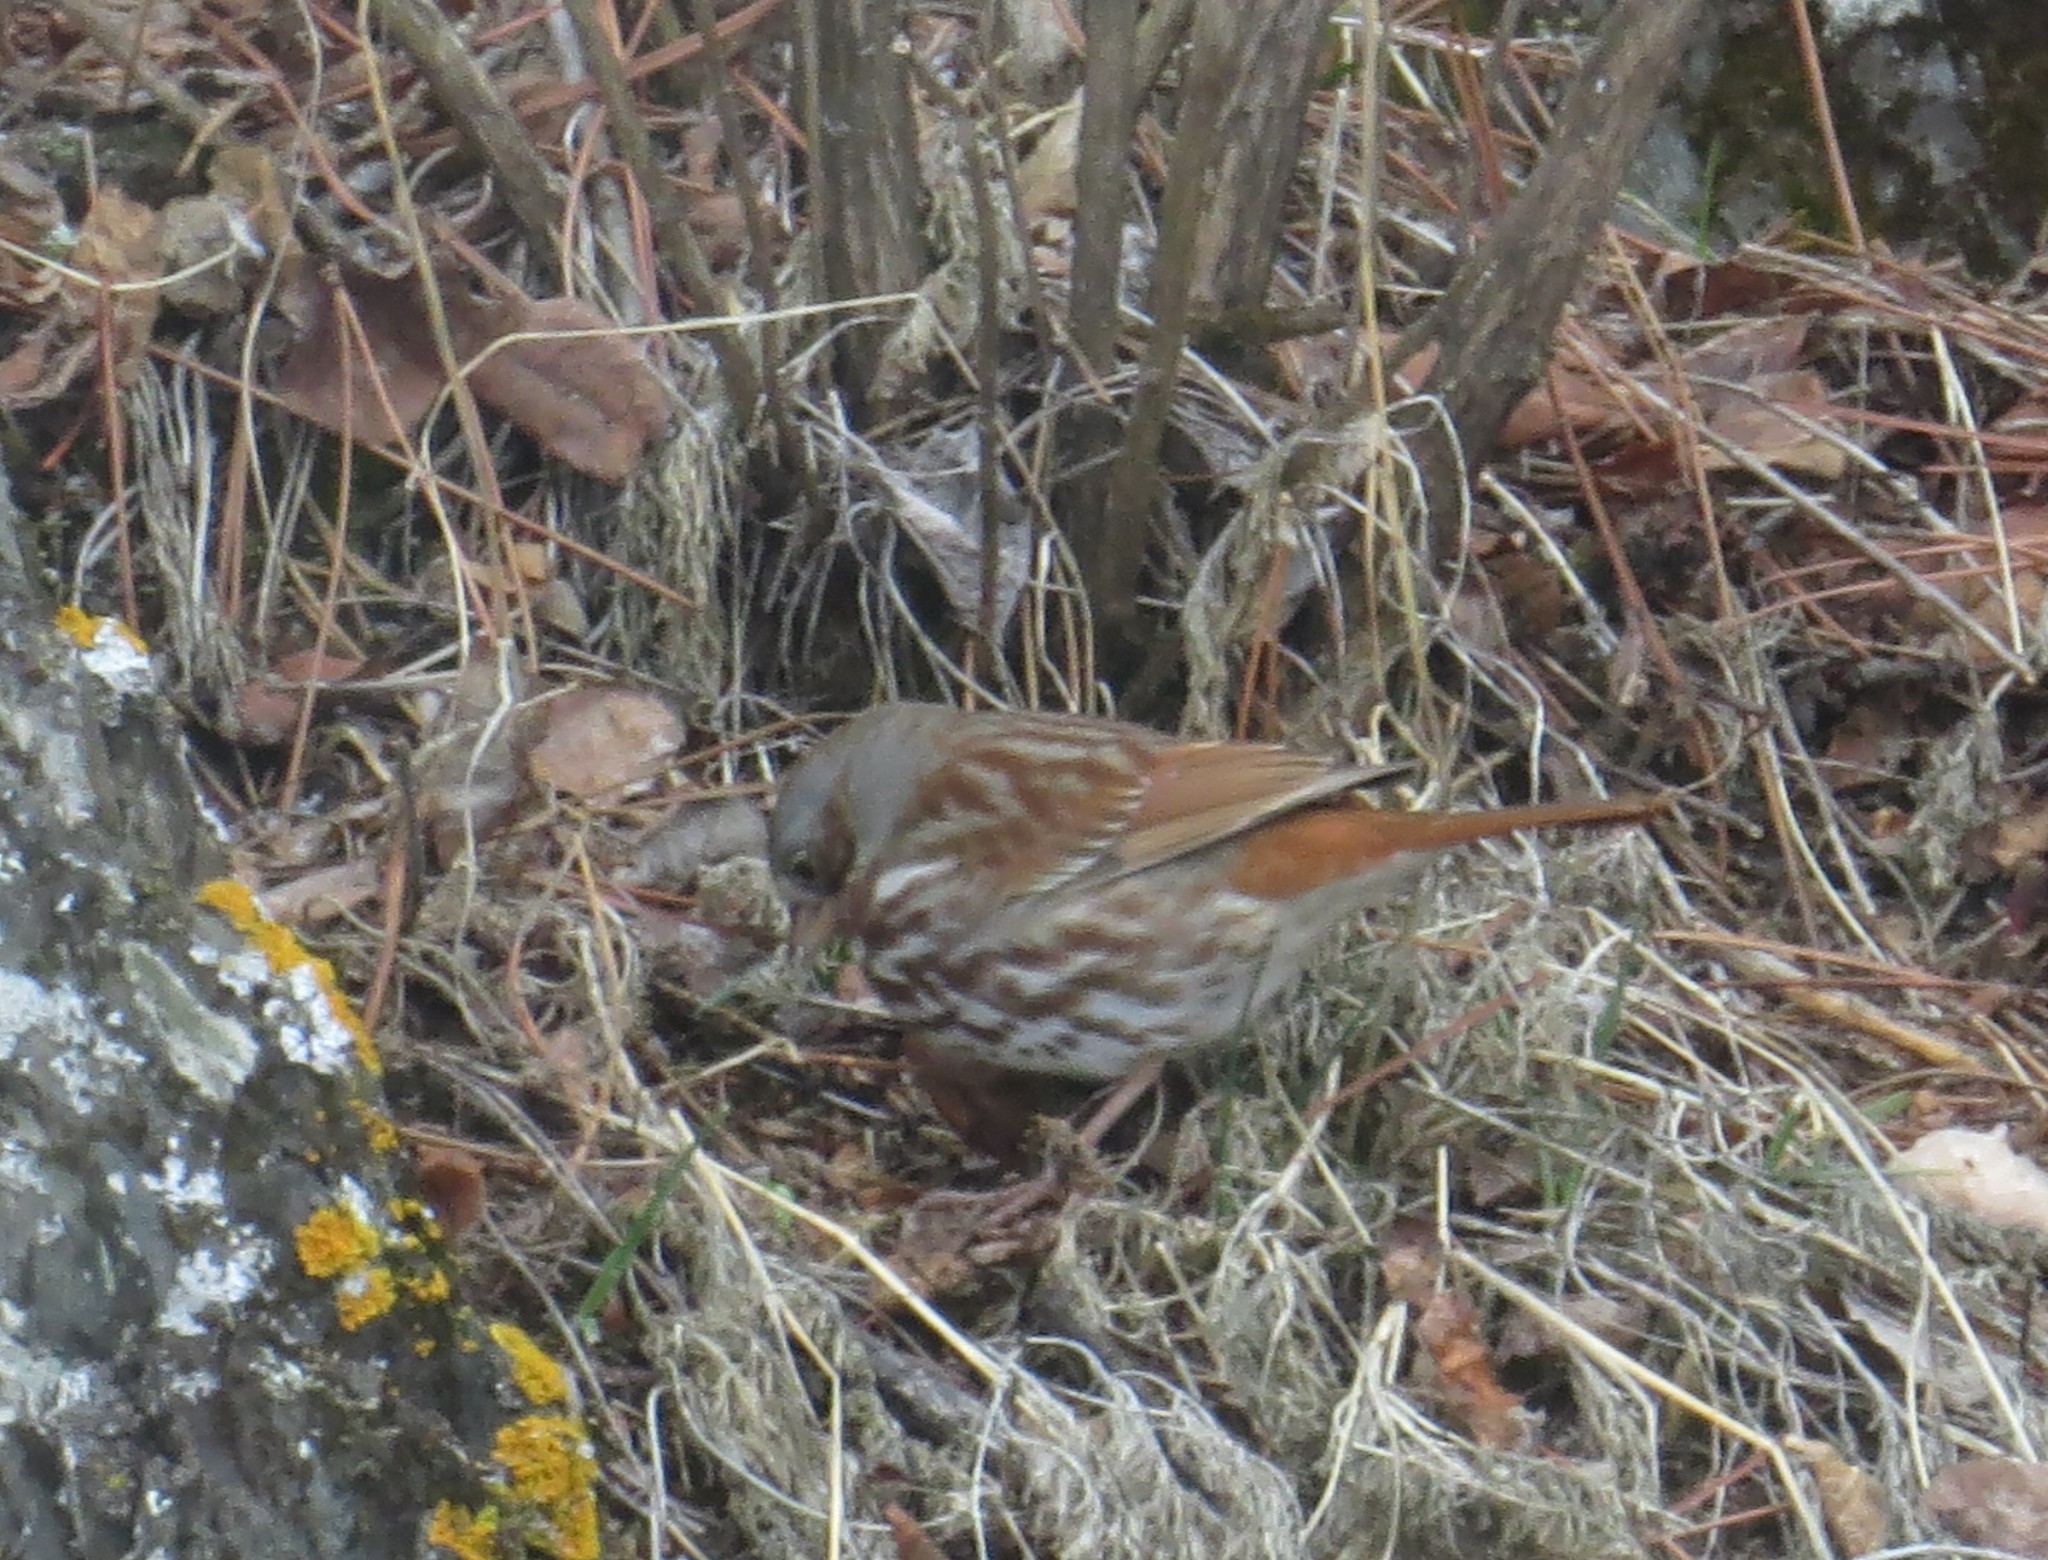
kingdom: Animalia
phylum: Chordata
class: Aves
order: Passeriformes
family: Passerellidae
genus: Passerella
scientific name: Passerella iliaca
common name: Fox sparrow
